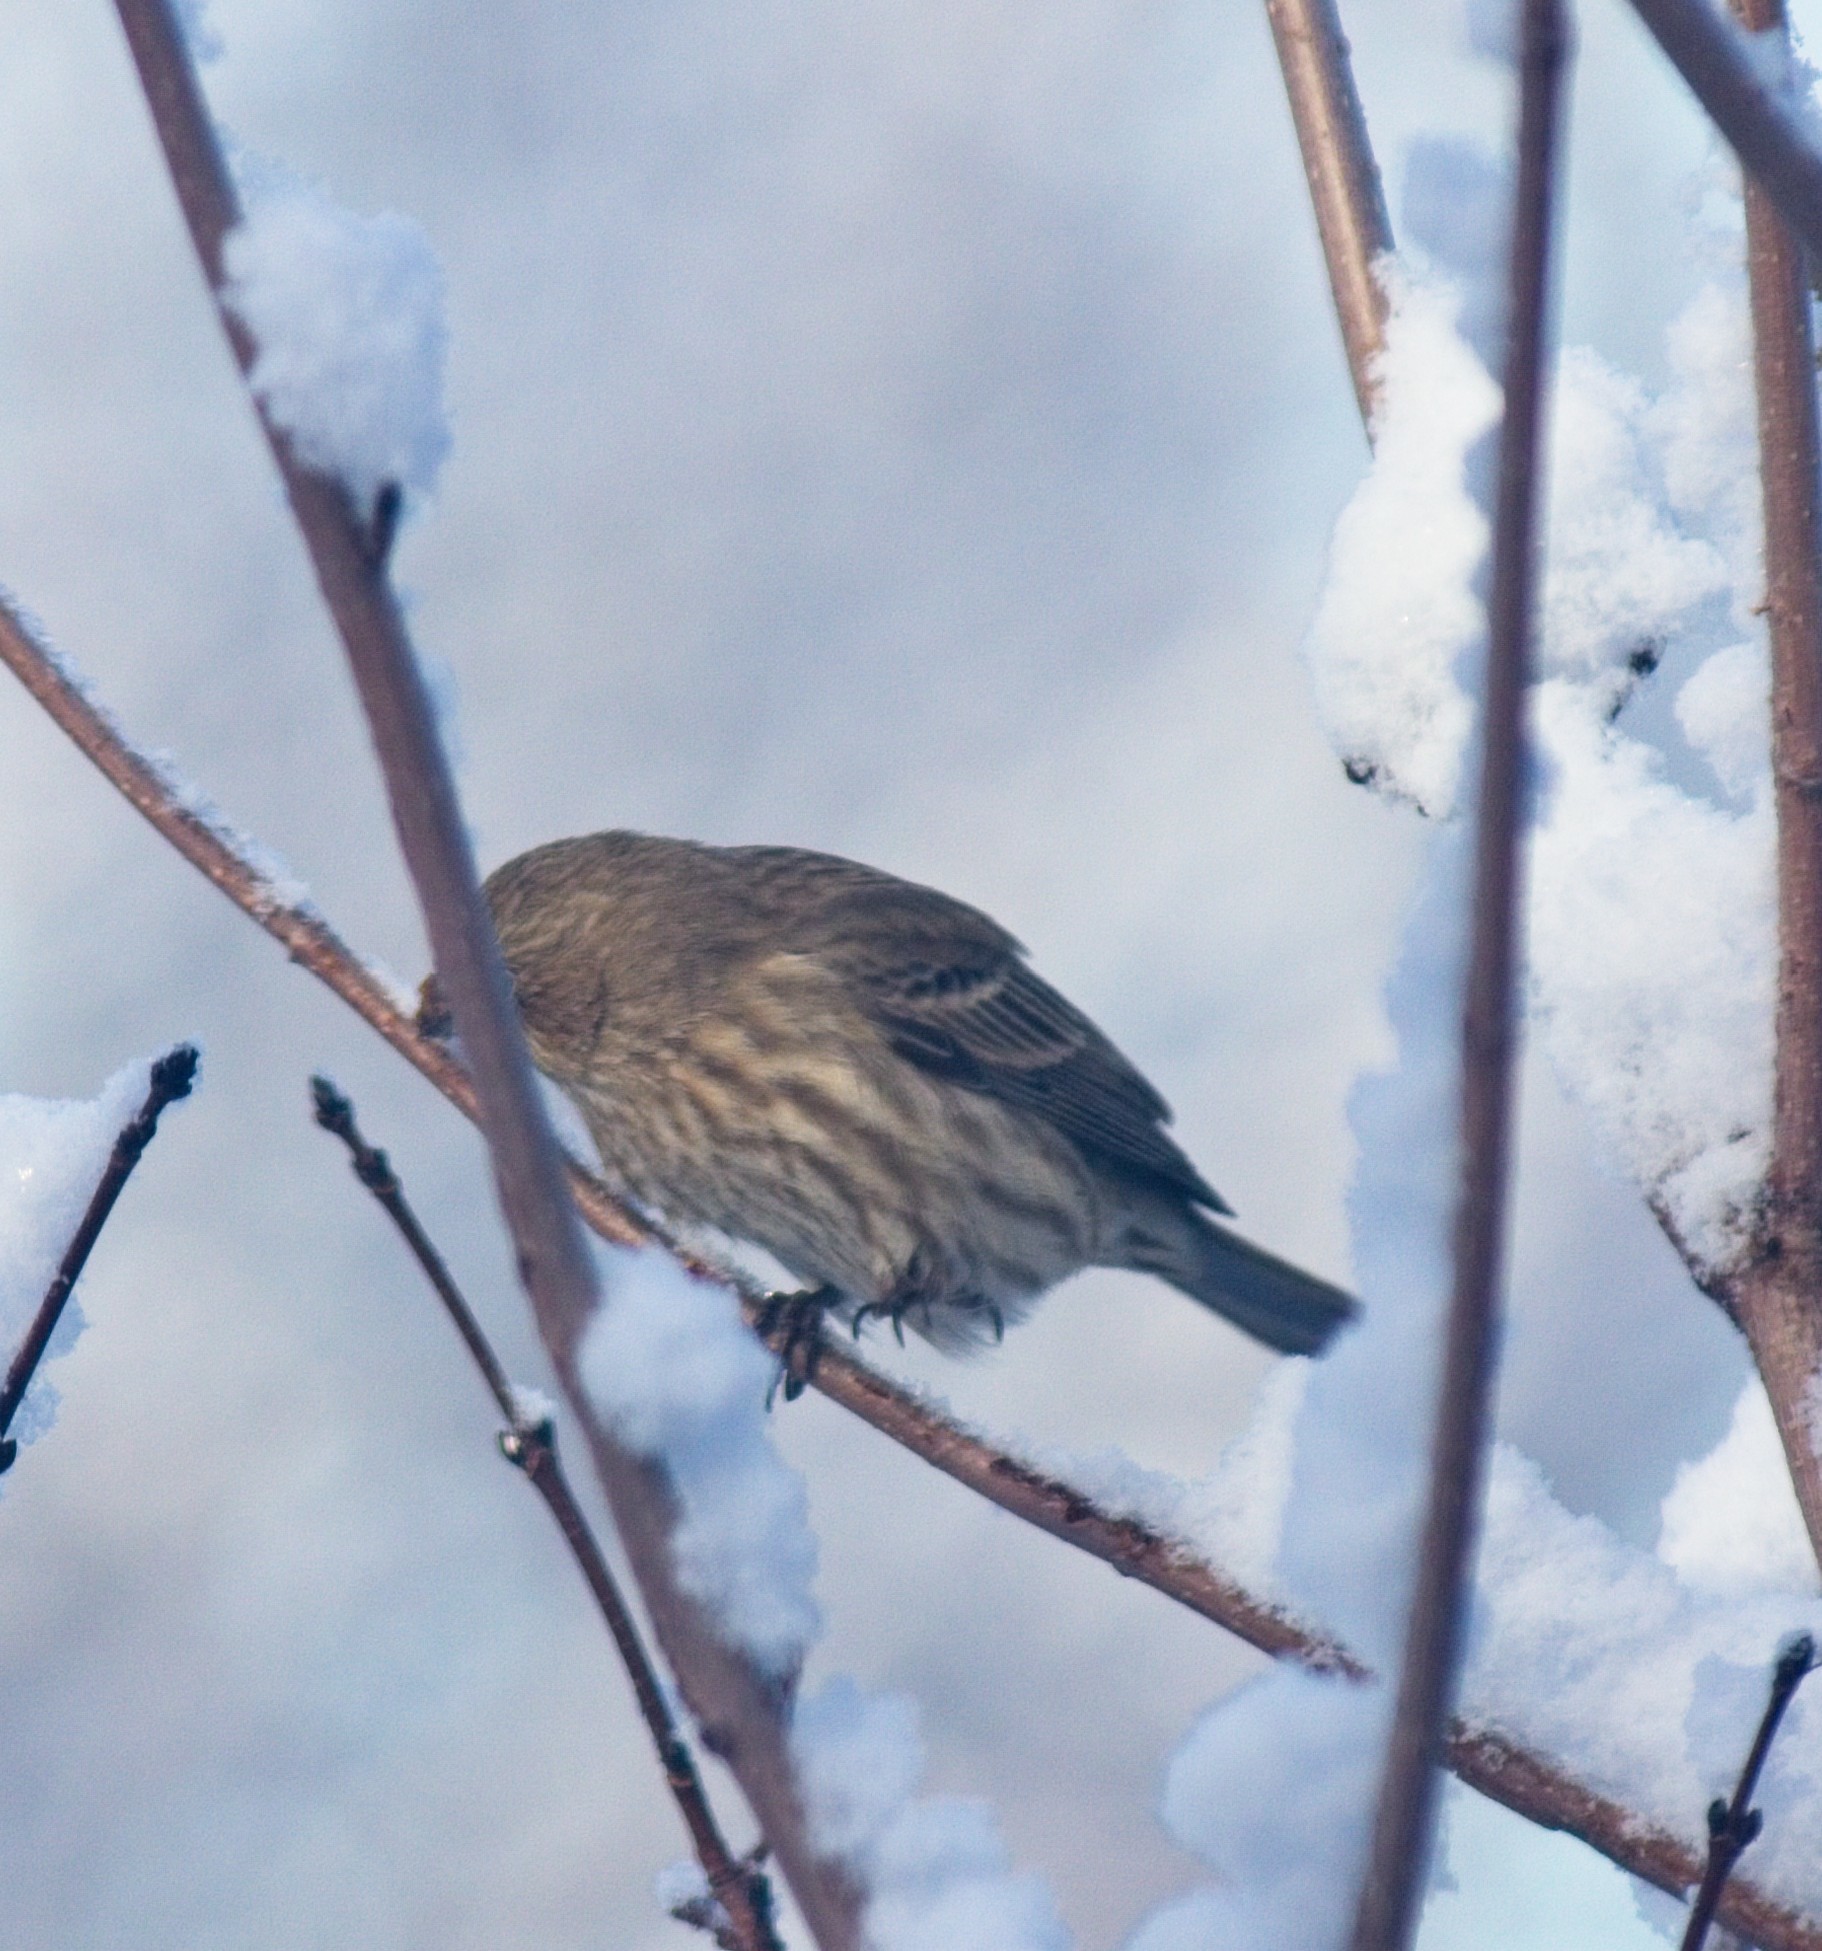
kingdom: Animalia
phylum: Chordata
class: Aves
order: Passeriformes
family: Fringillidae
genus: Haemorhous
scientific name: Haemorhous mexicanus
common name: House finch
